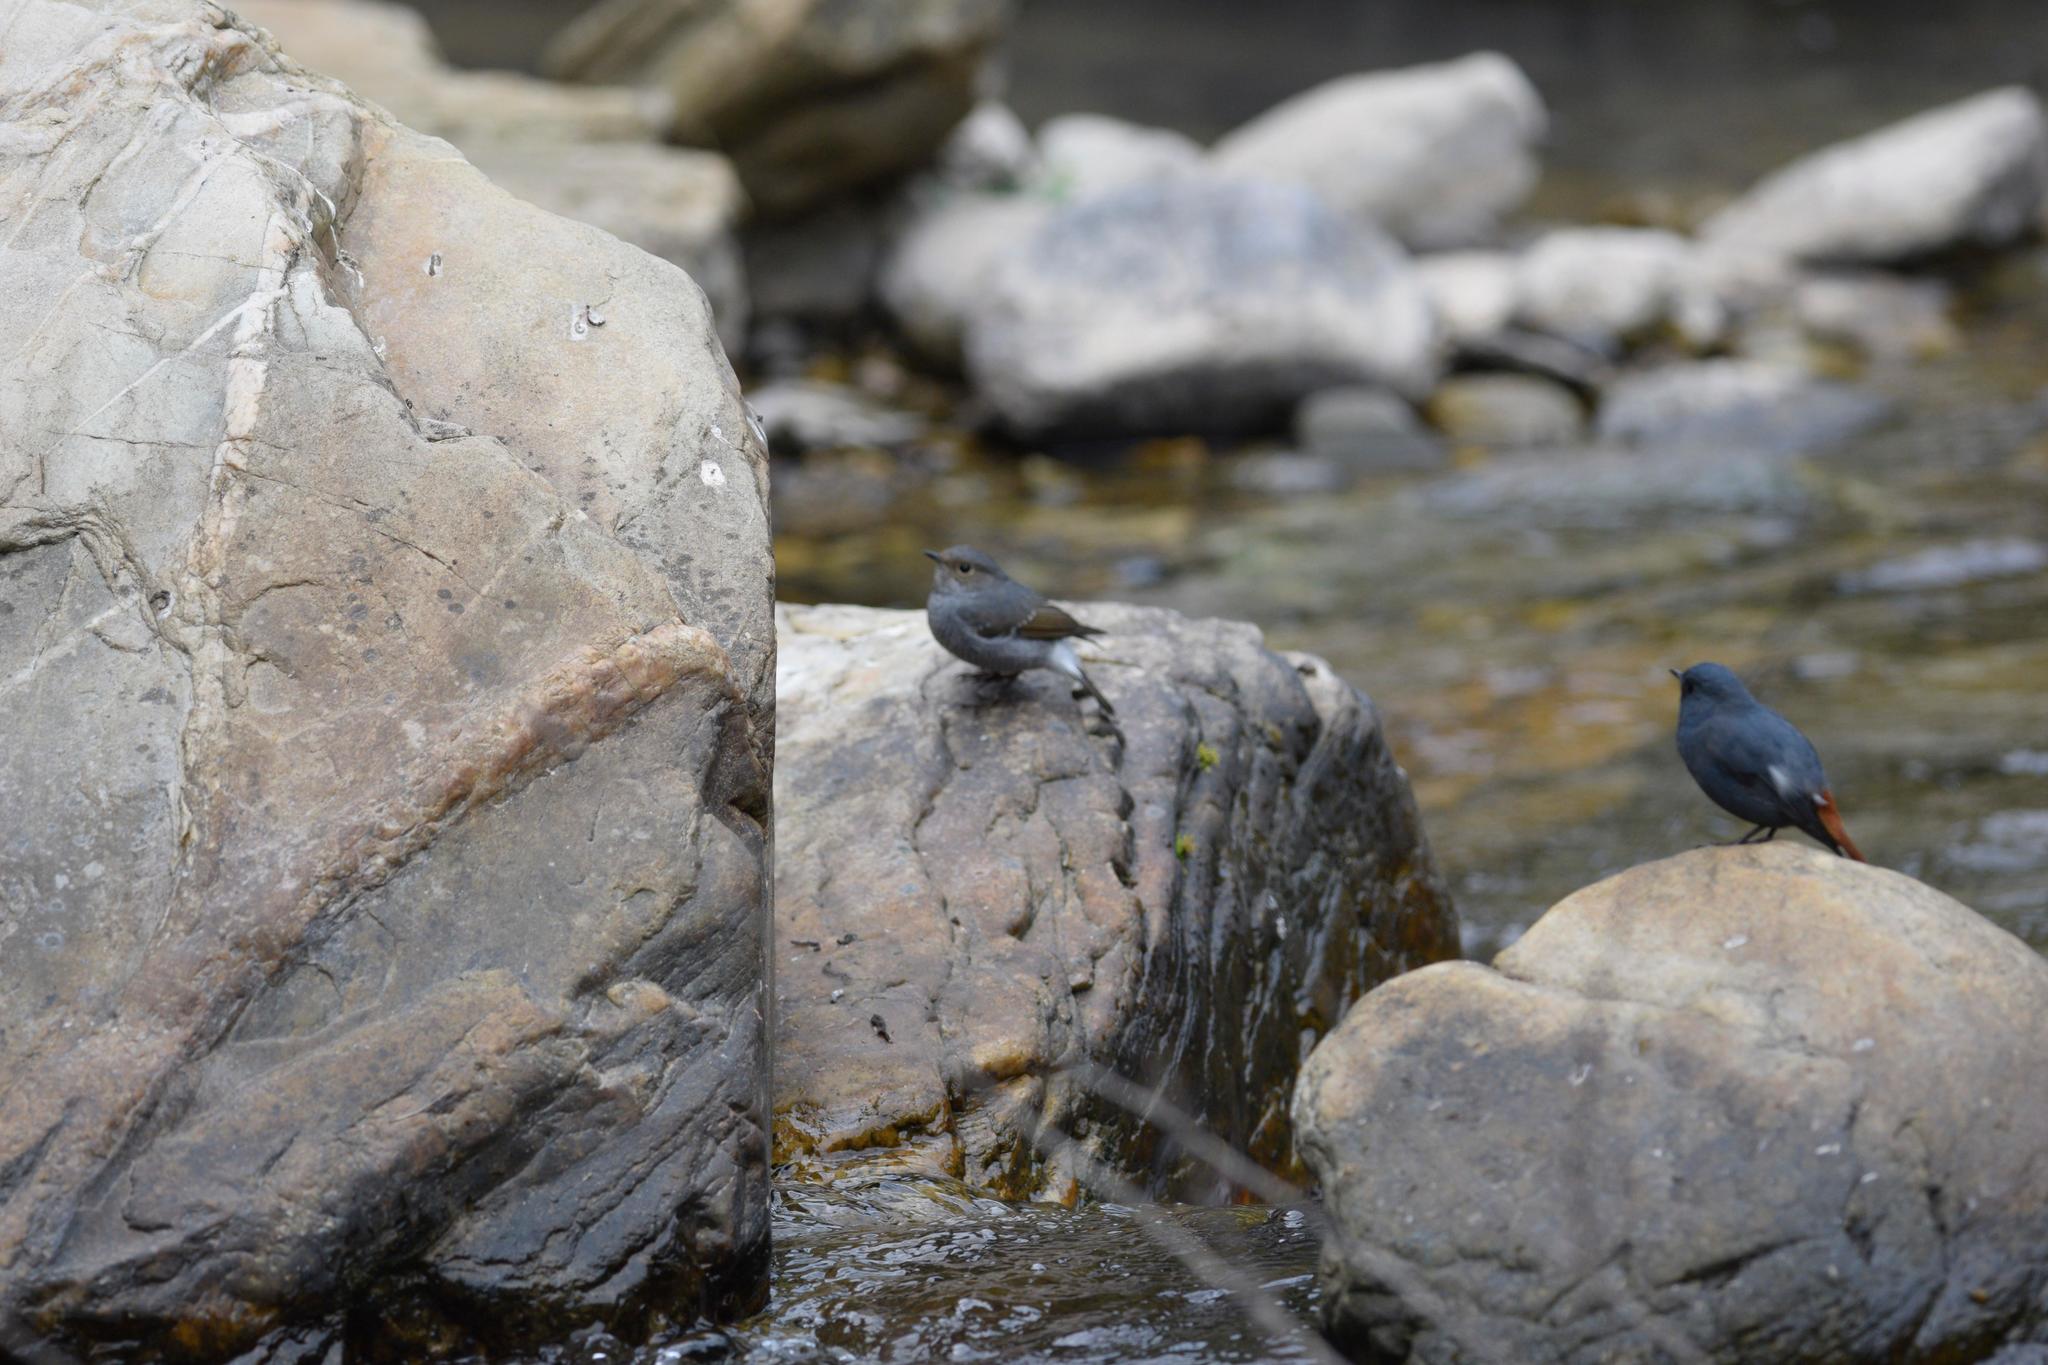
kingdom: Animalia
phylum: Chordata
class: Aves
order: Passeriformes
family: Muscicapidae
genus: Phoenicurus
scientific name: Phoenicurus fuliginosus
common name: Plumbeous water redstart
